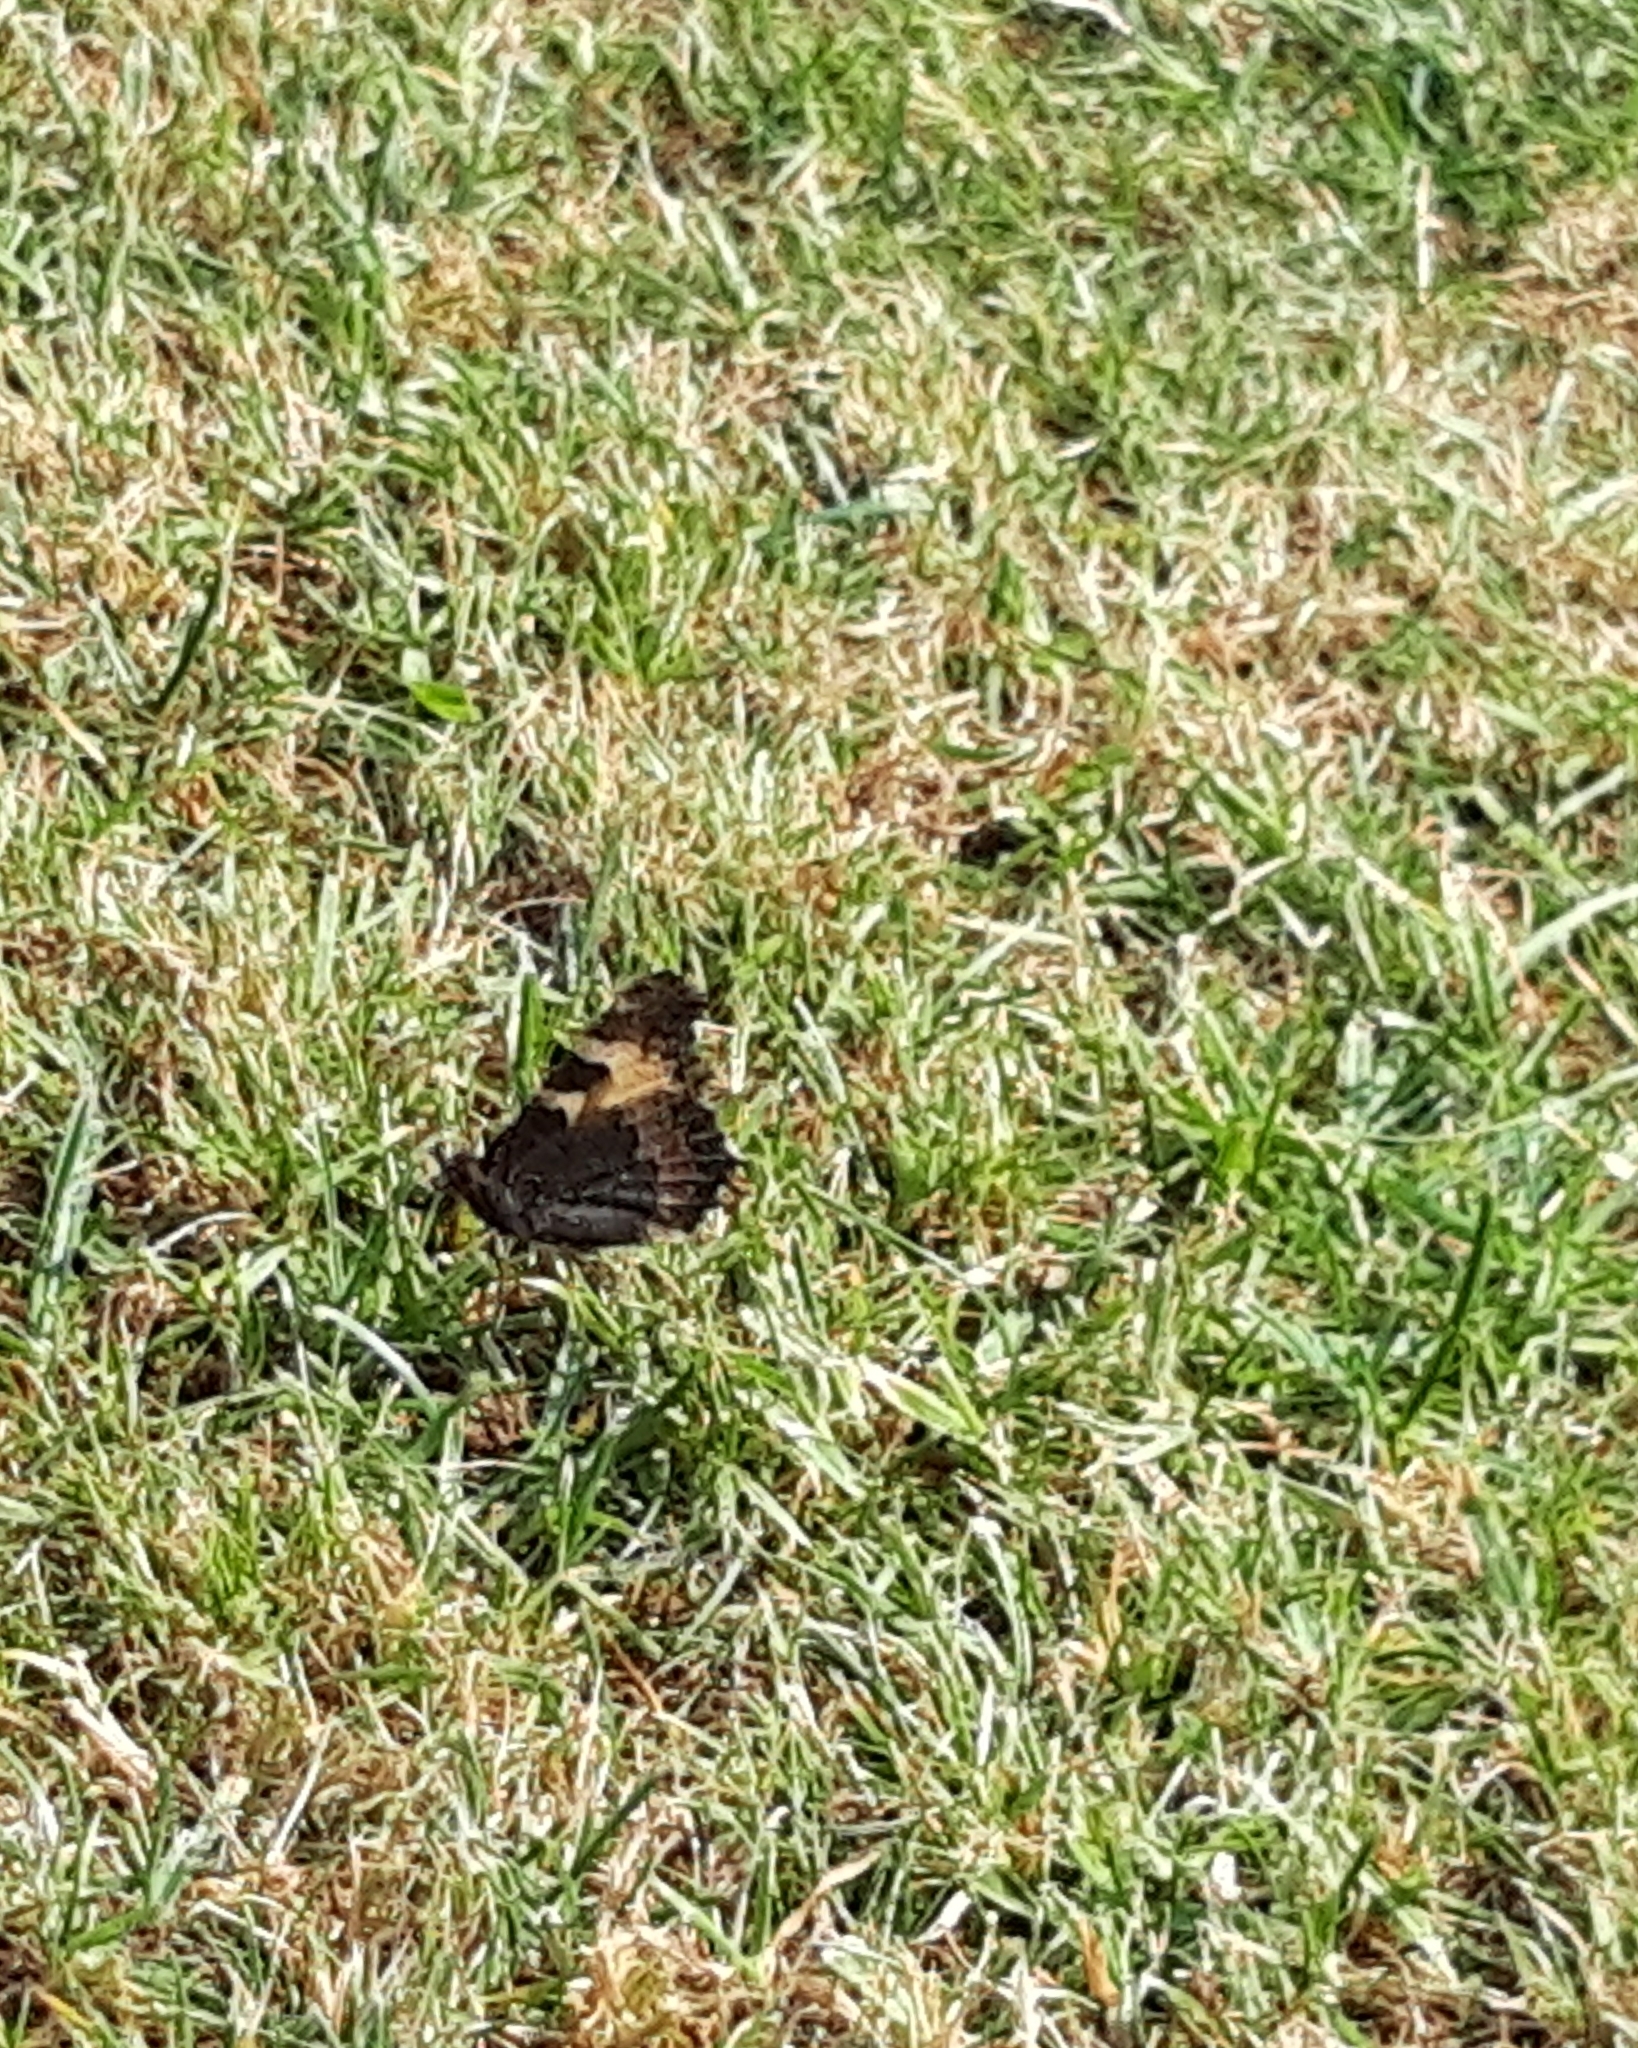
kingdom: Animalia
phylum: Arthropoda
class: Insecta
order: Lepidoptera
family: Nymphalidae
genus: Aglais
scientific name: Aglais urticae
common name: Small tortoiseshell
